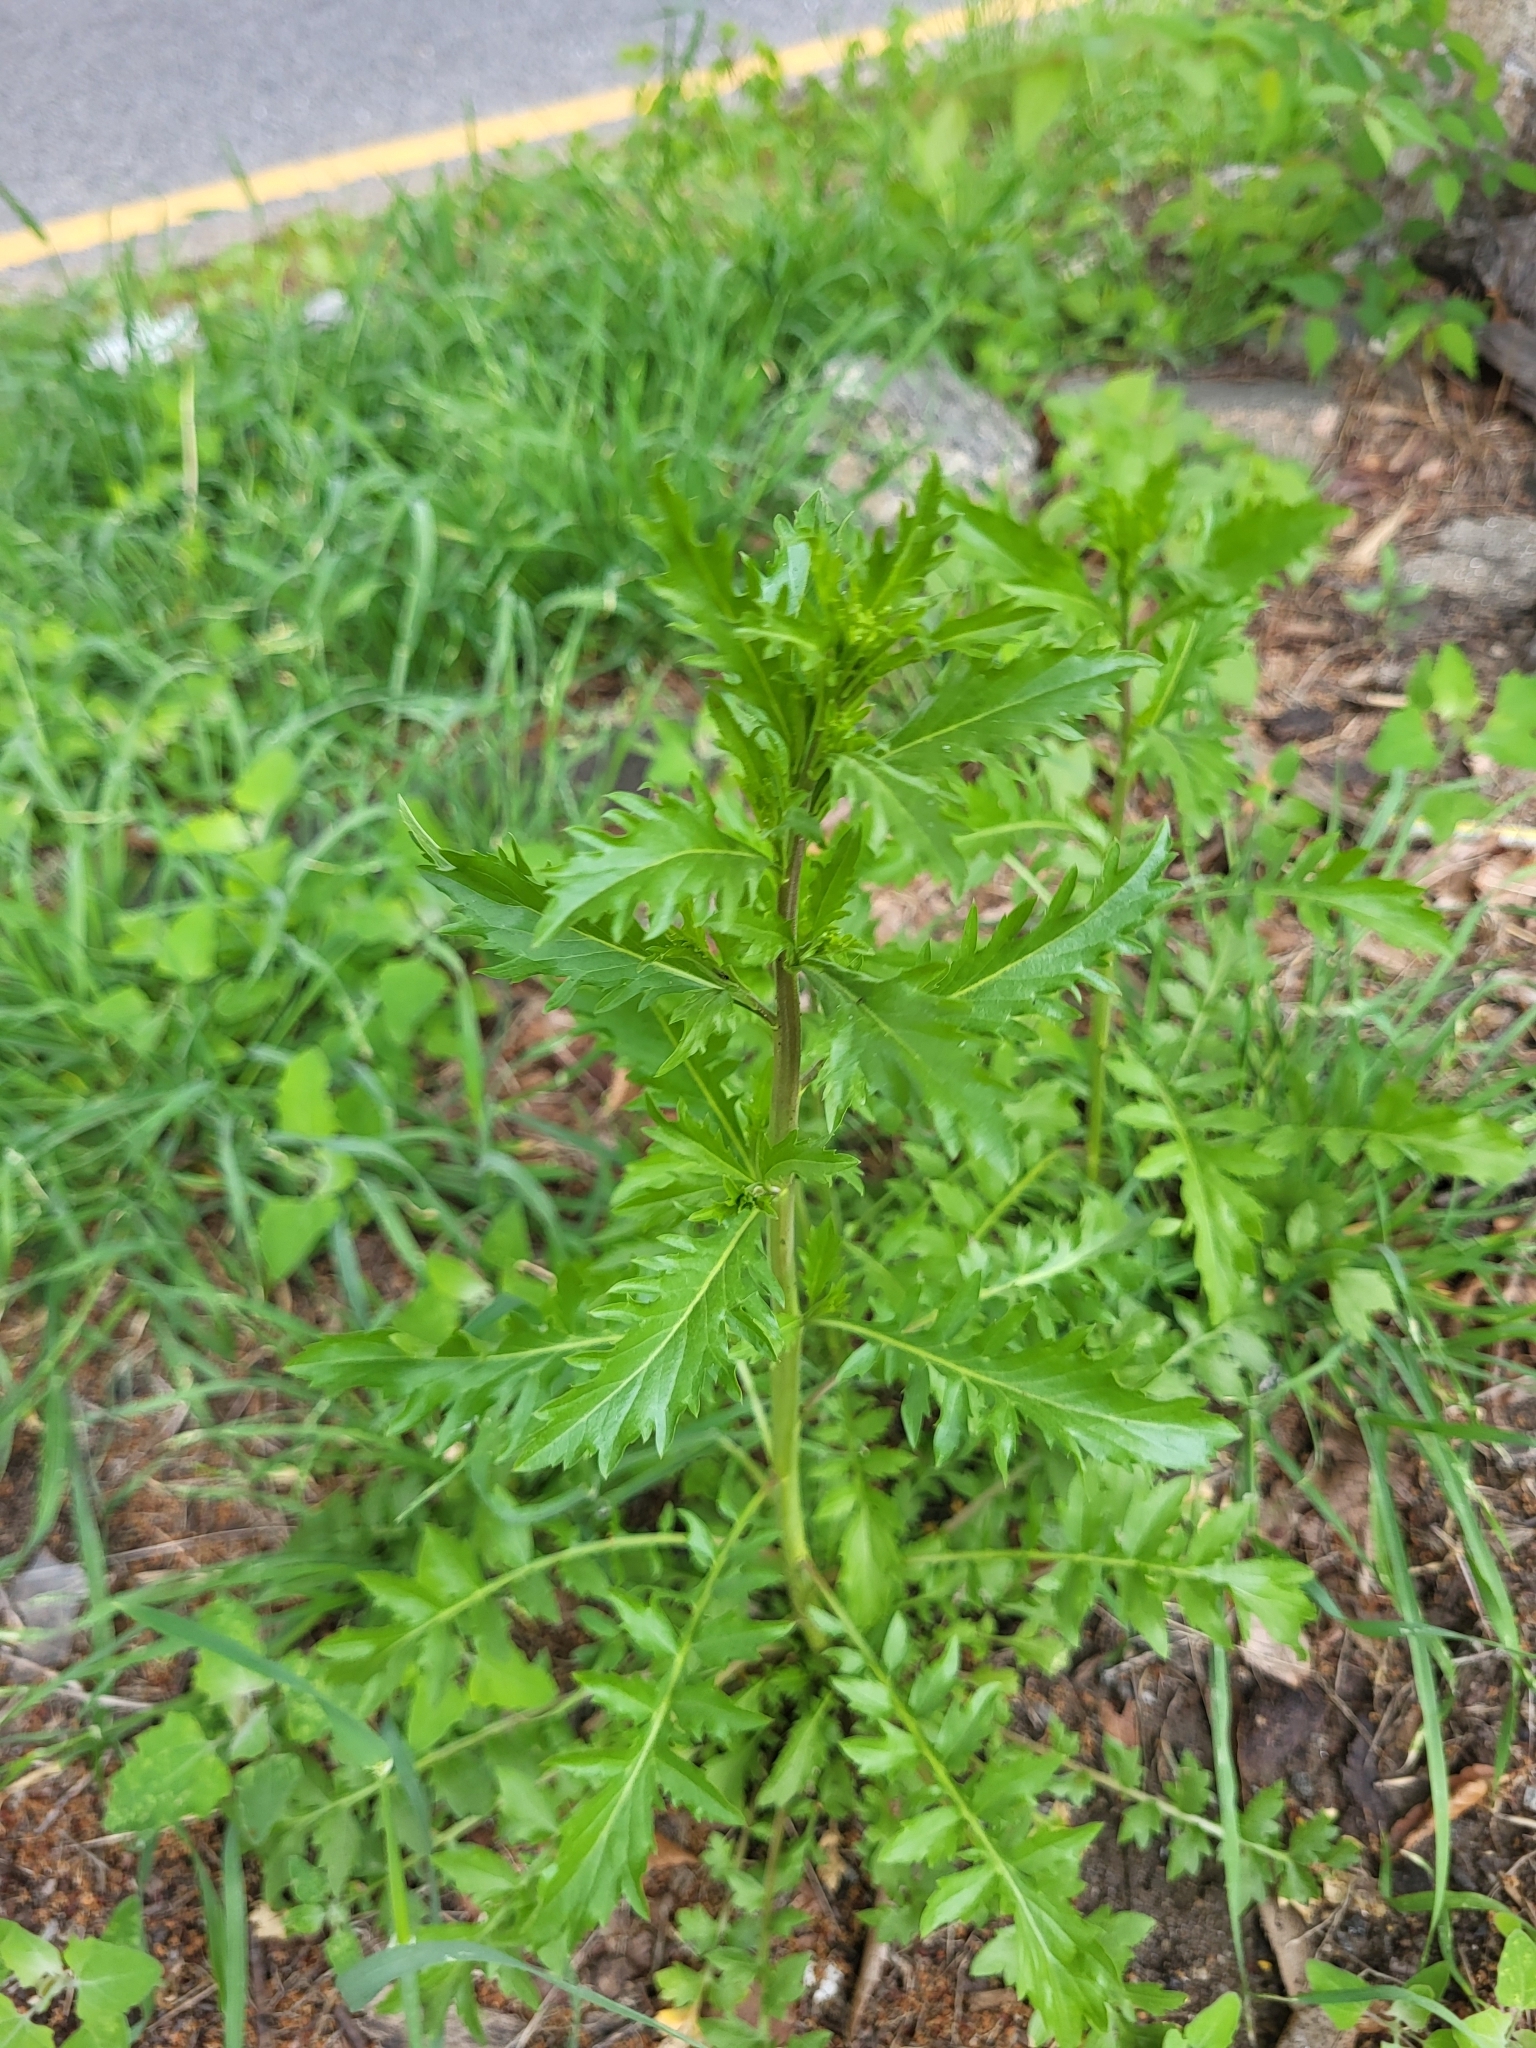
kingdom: Plantae
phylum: Tracheophyta
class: Magnoliopsida
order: Brassicales
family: Brassicaceae
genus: Lepidium
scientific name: Lepidium virginicum
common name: Least pepperwort
